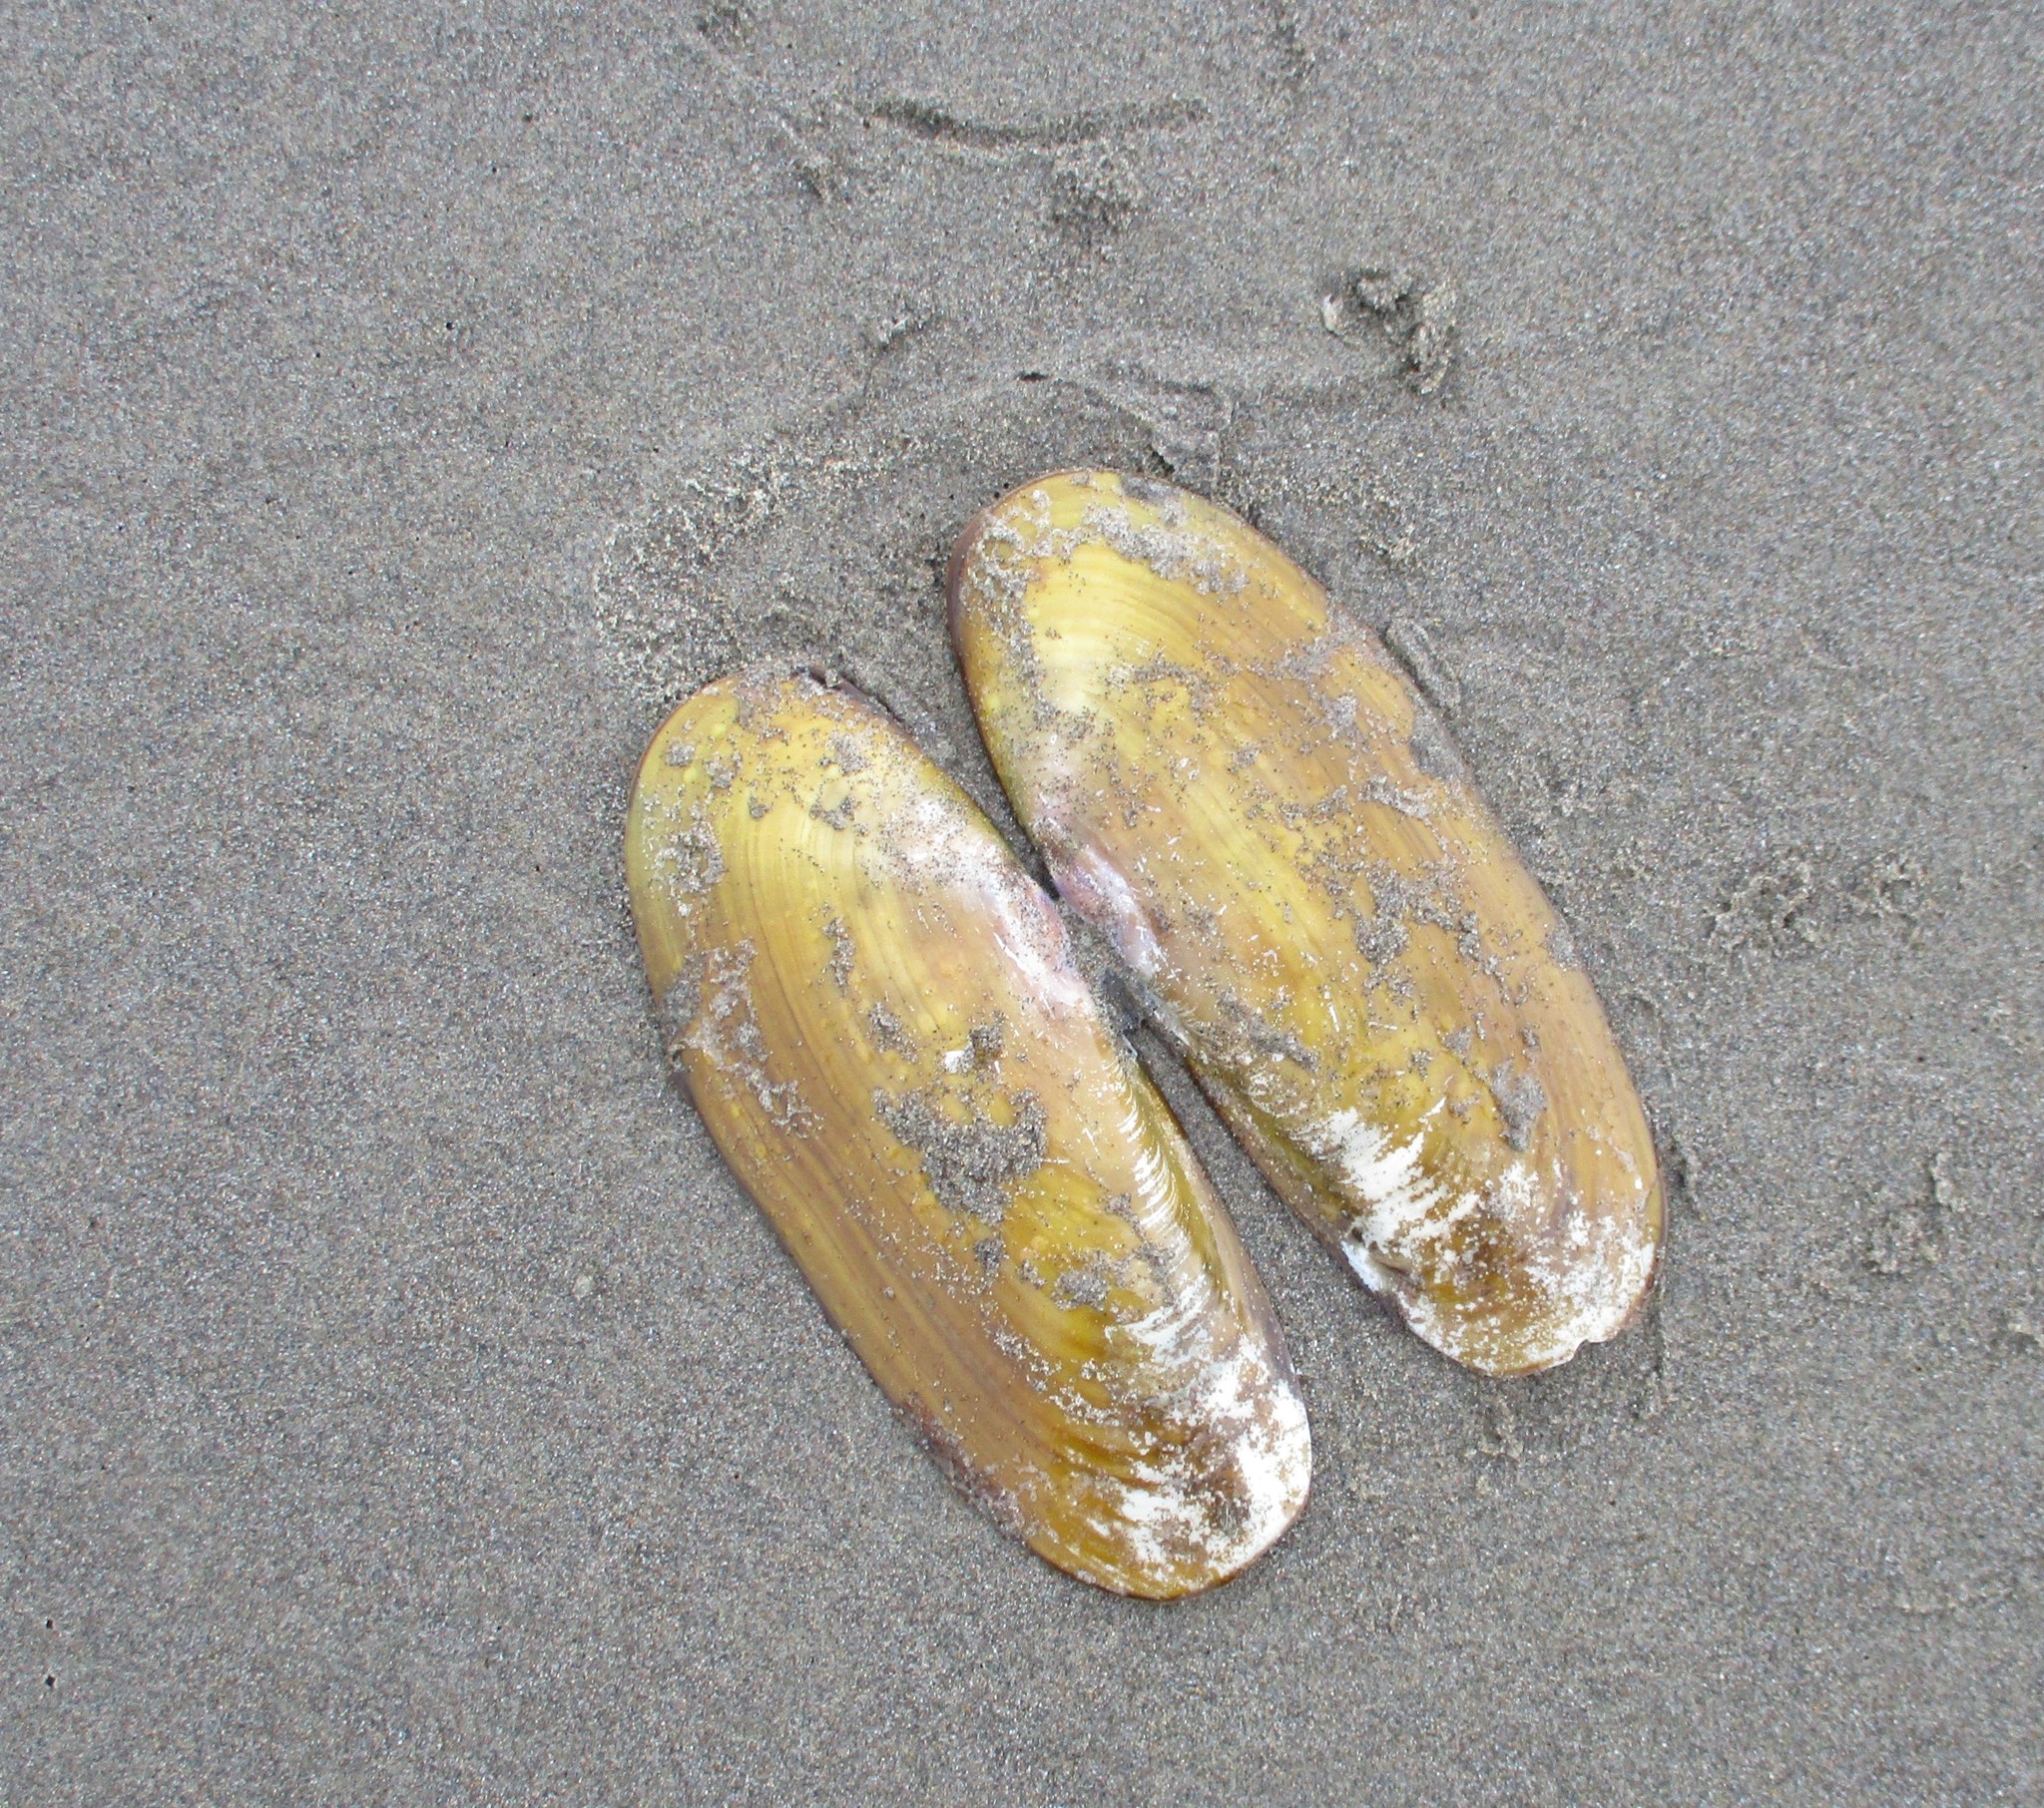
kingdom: Animalia
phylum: Mollusca
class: Bivalvia
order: Adapedonta
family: Pharidae
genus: Siliqua
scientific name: Siliqua patula
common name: Pacific razor clam
